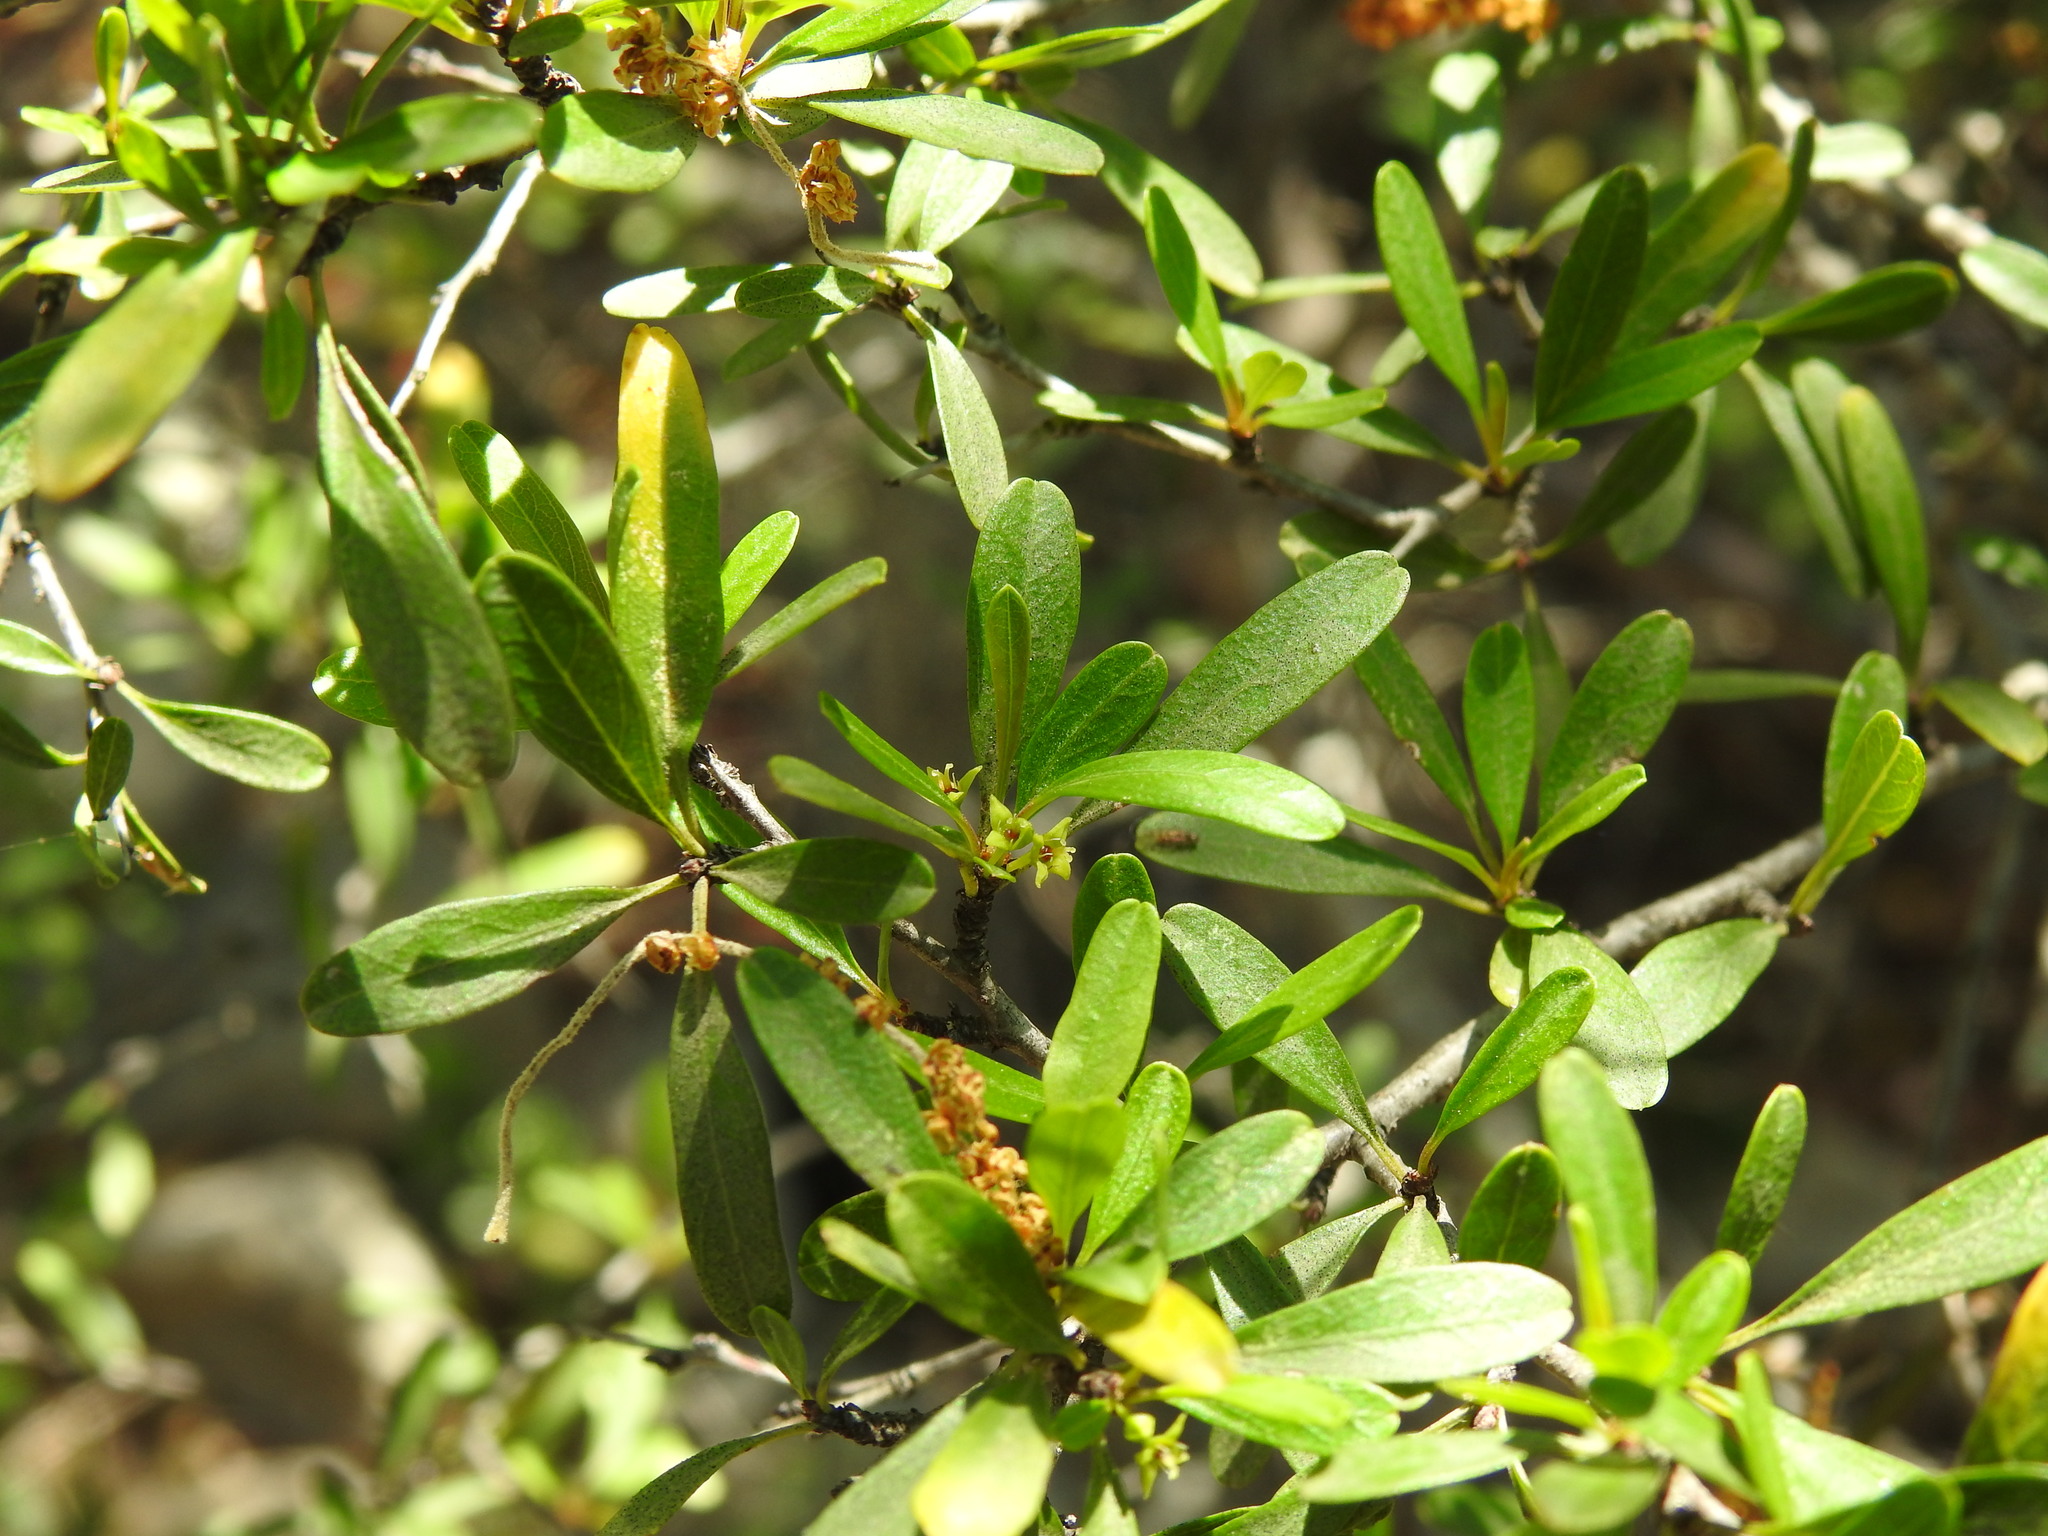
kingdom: Plantae
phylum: Tracheophyta
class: Magnoliopsida
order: Rosales
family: Rhamnaceae
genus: Rhamnus
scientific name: Rhamnus oleoides
